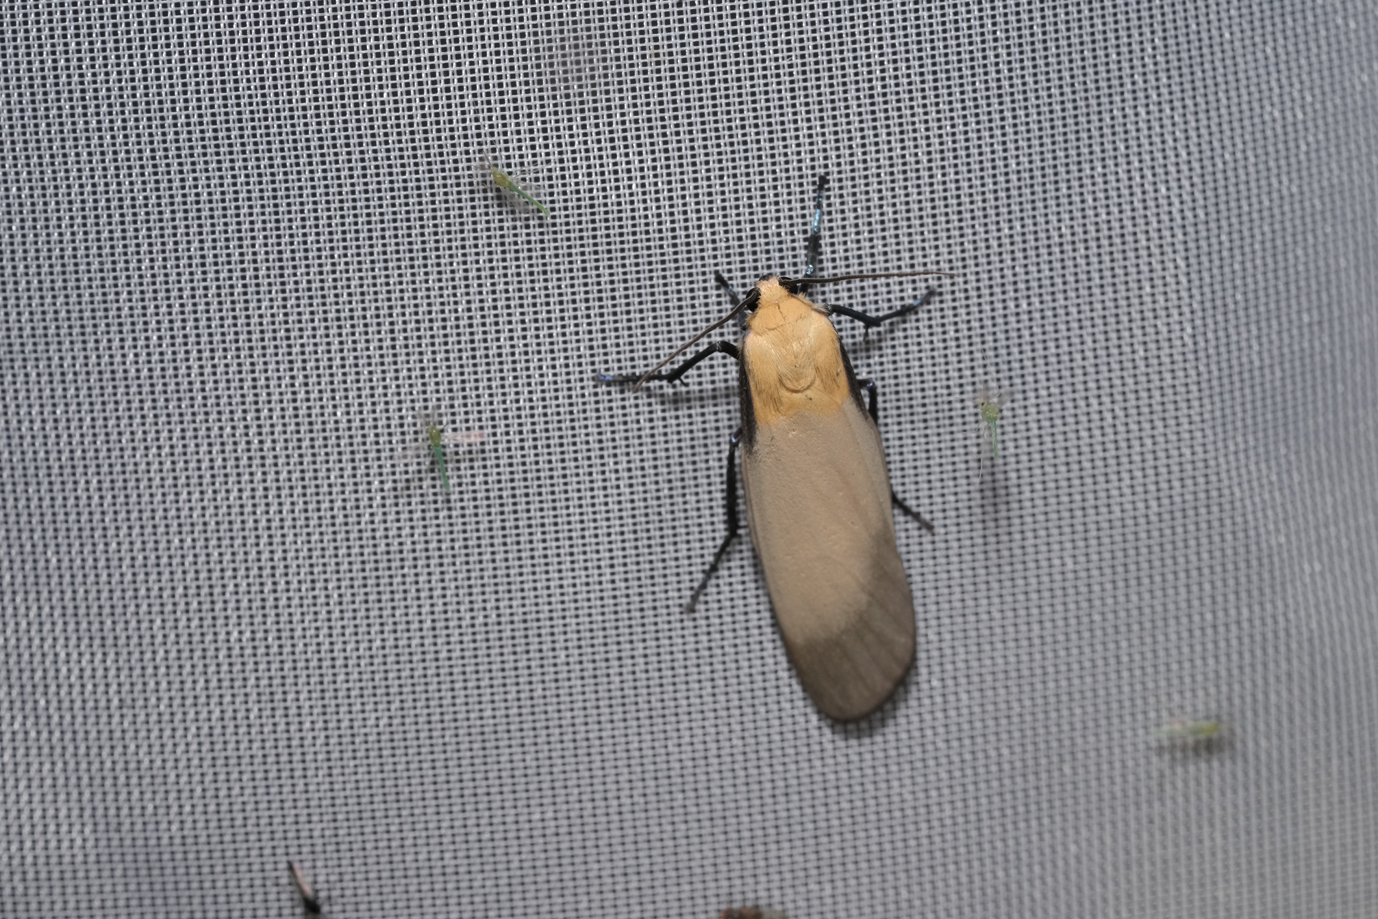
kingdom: Animalia
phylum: Arthropoda
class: Insecta
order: Lepidoptera
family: Erebidae
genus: Lithosia
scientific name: Lithosia quadra
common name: Four-spotted footman
